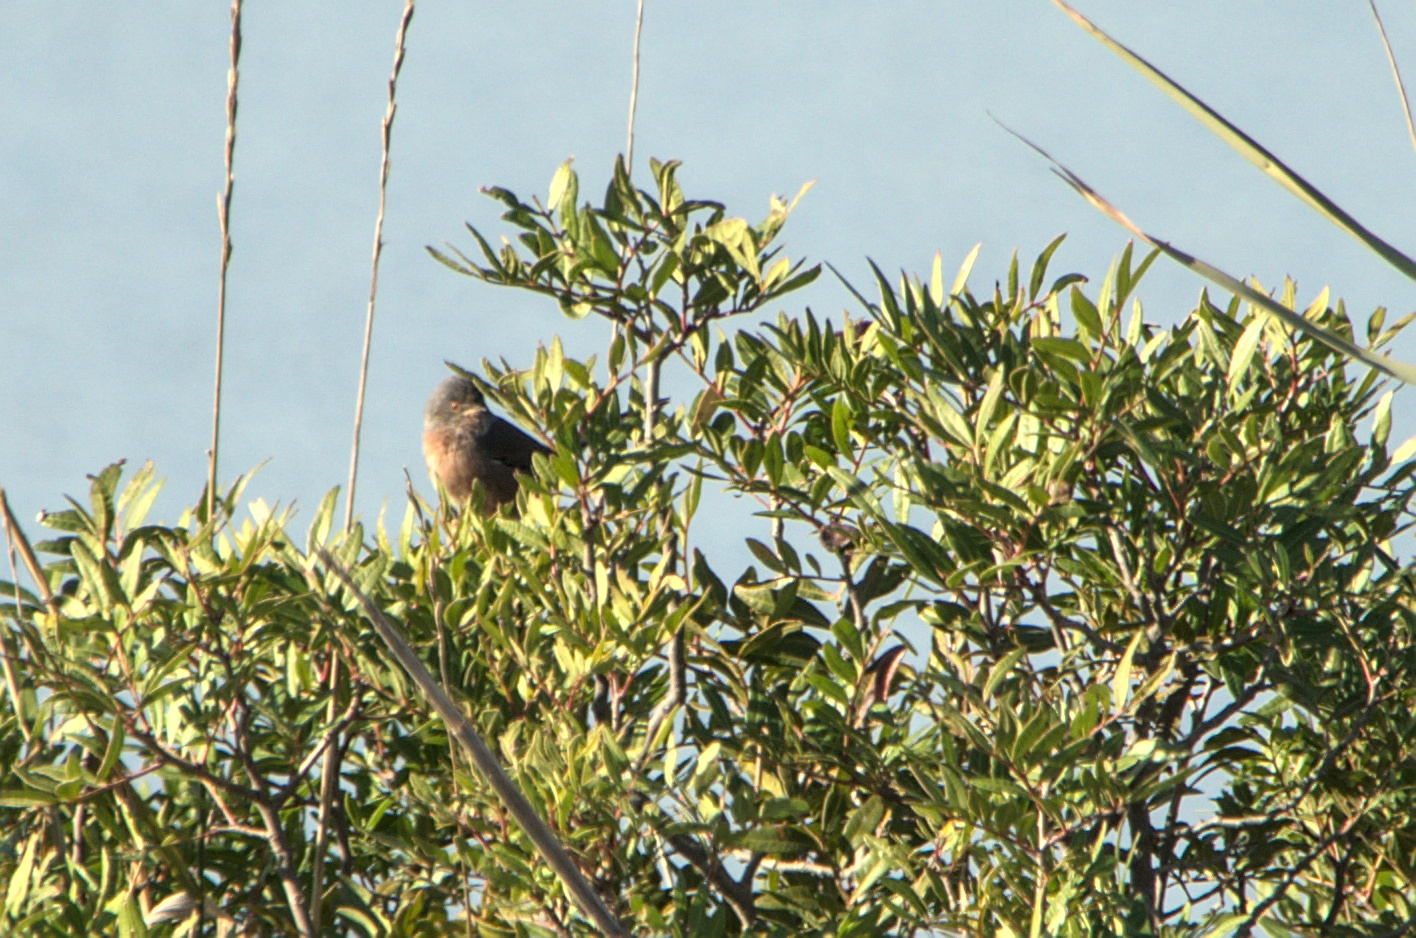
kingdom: Animalia
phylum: Chordata
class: Aves
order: Passeriformes
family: Sylviidae
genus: Sylvia
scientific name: Sylvia undata
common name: Dartford warbler
